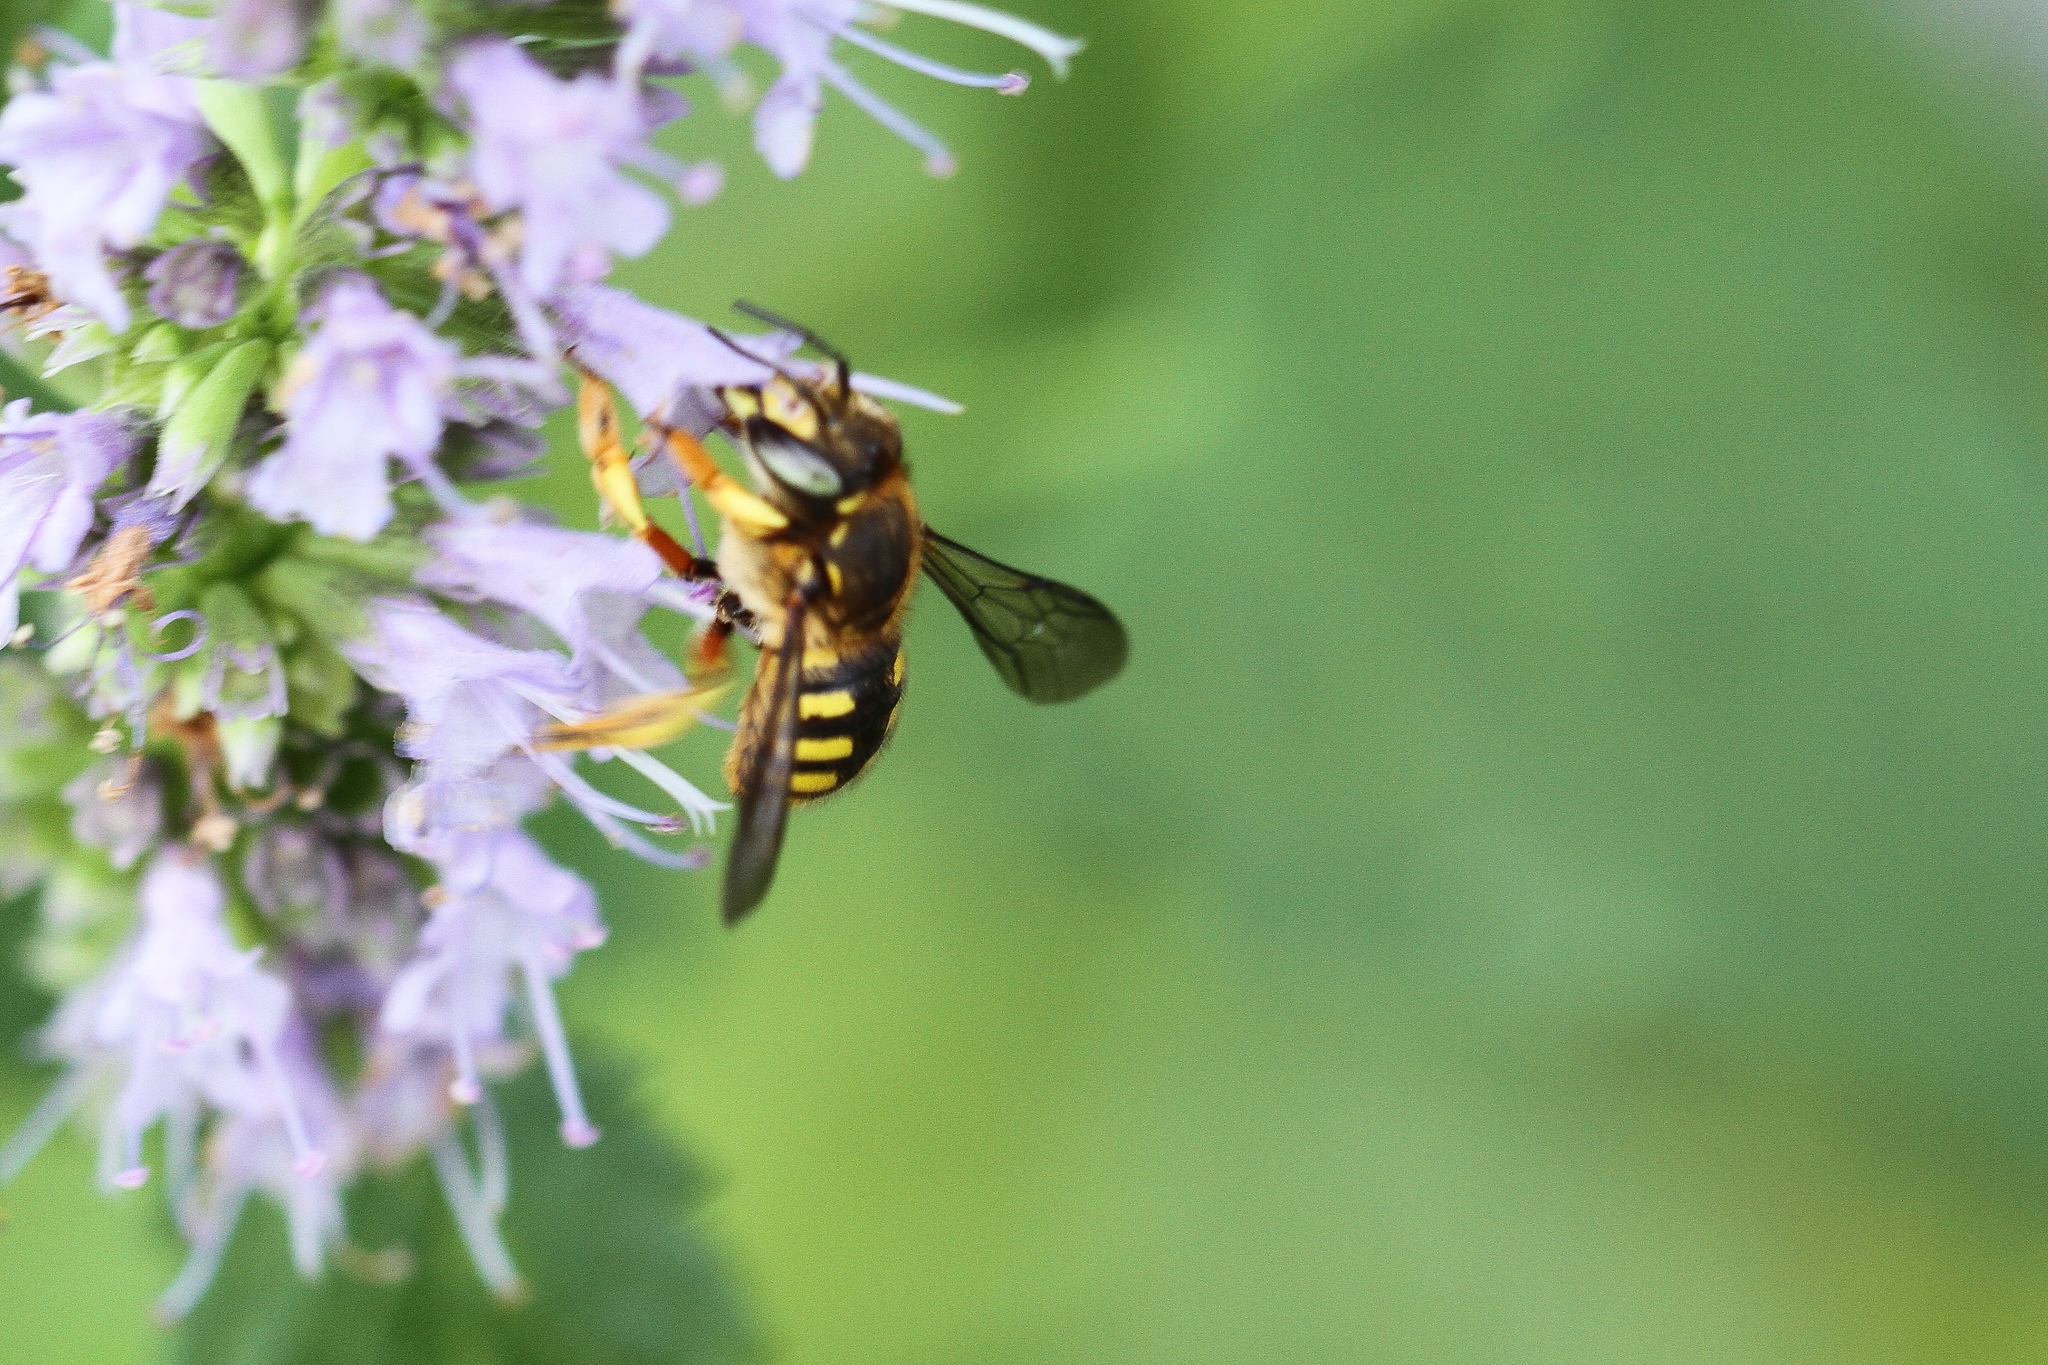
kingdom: Animalia
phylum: Arthropoda
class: Insecta
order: Hymenoptera
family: Megachilidae
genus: Anthidium
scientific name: Anthidium manicatum
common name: Wool carder bee
